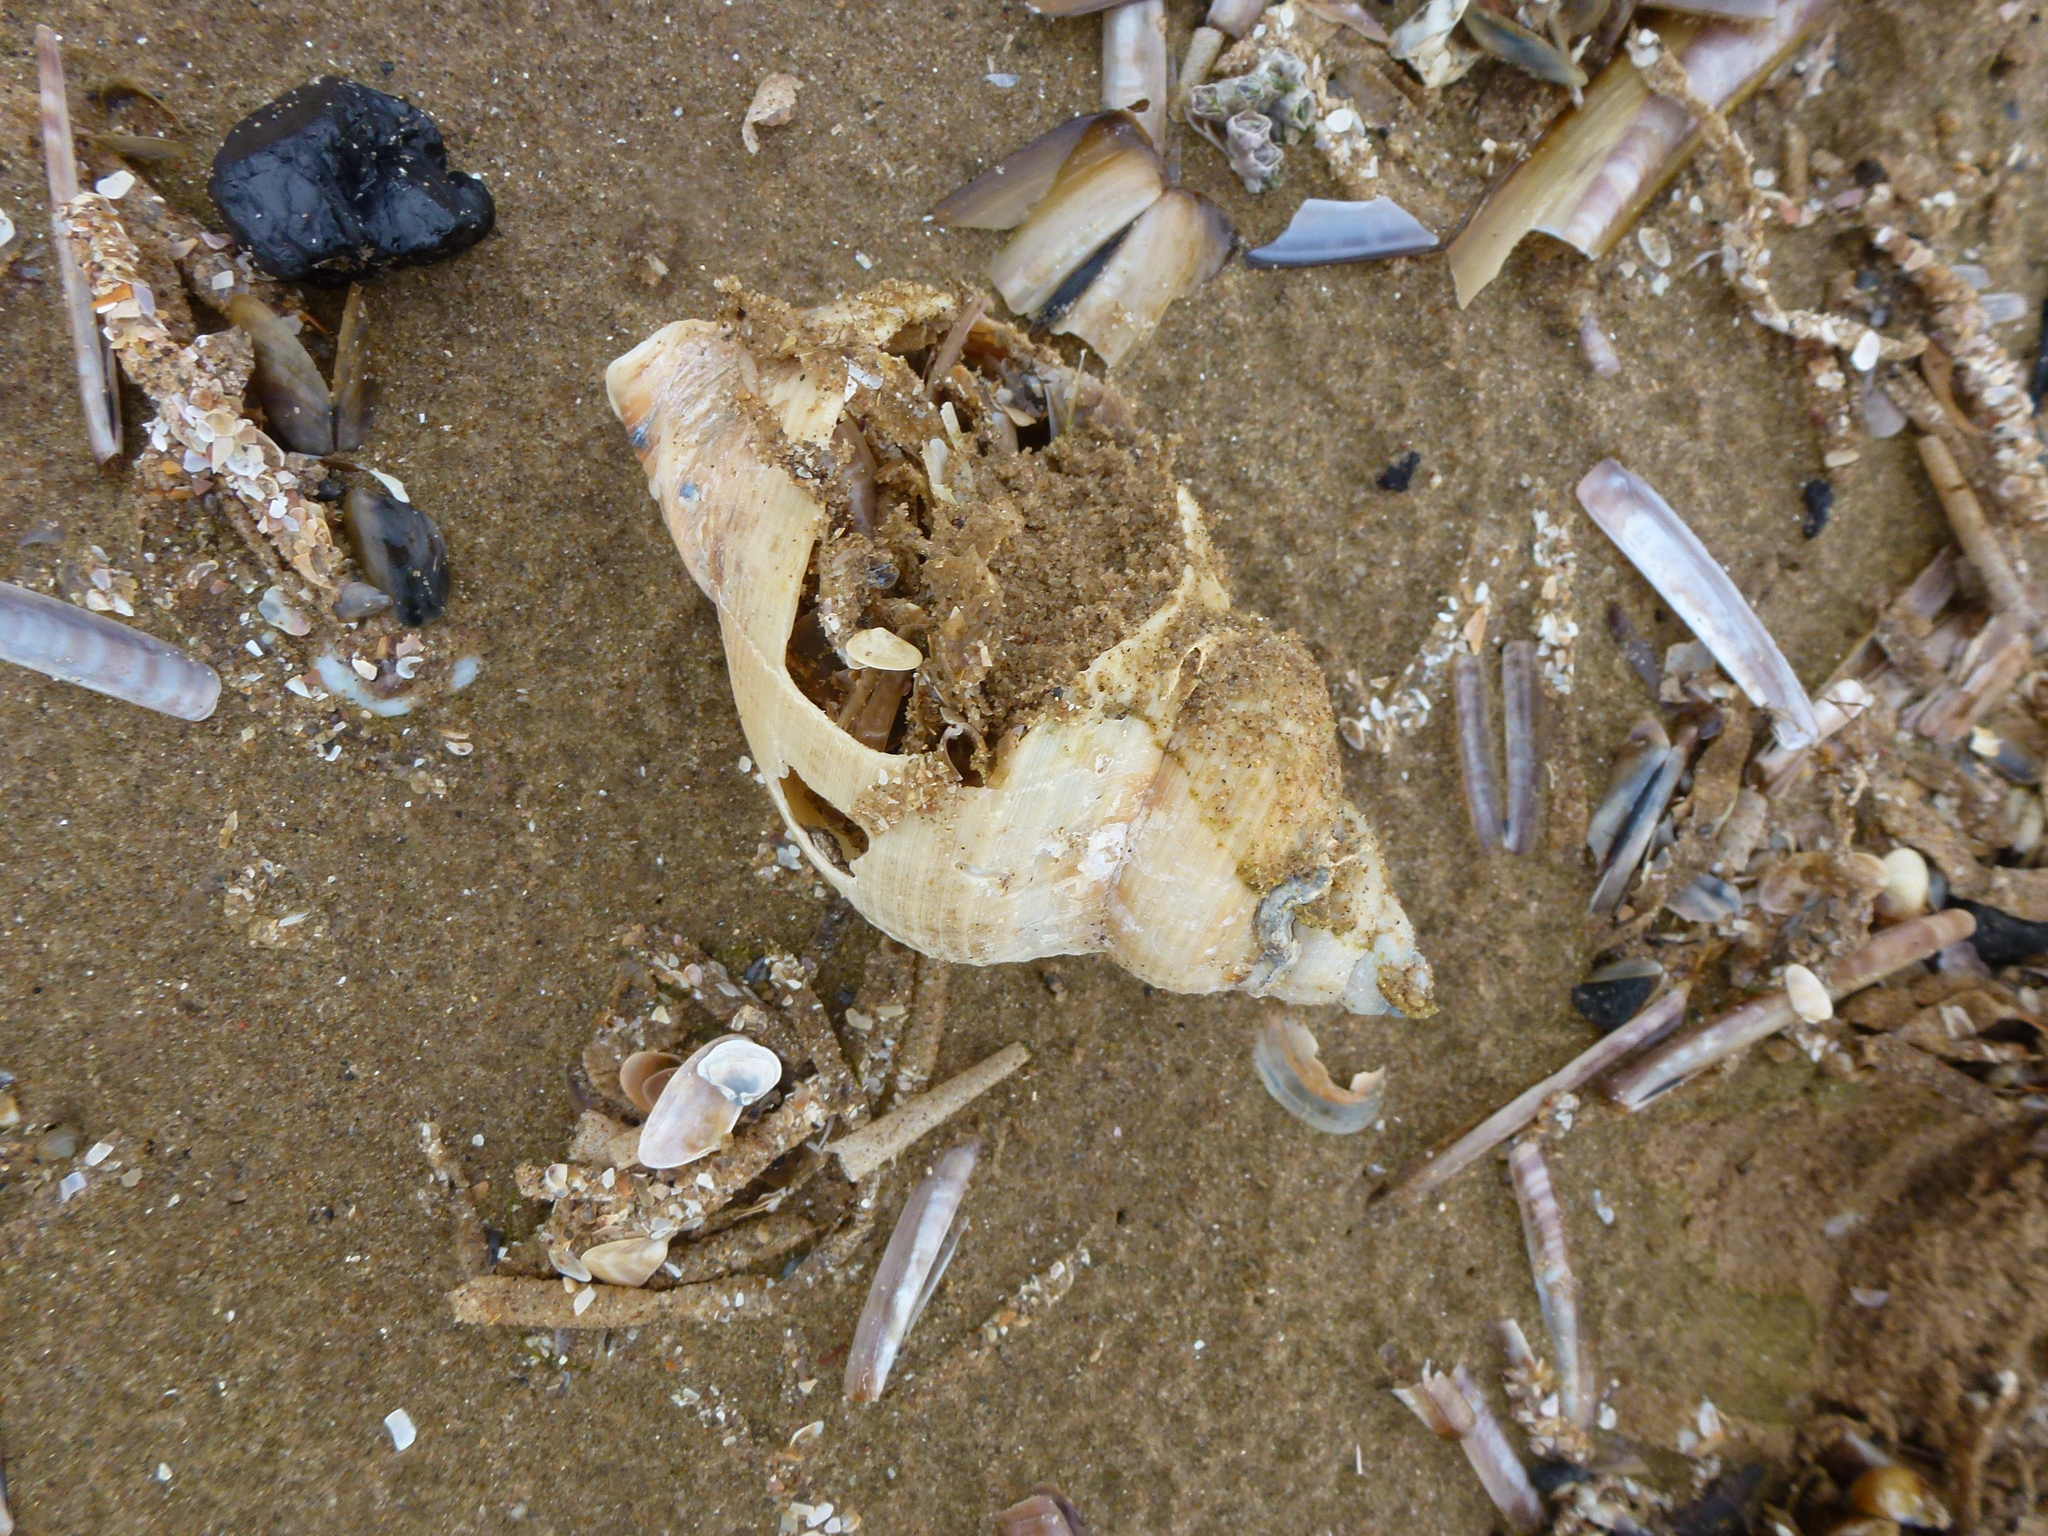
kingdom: Animalia
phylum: Mollusca
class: Gastropoda
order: Neogastropoda
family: Buccinidae
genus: Buccinum
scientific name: Buccinum undatum
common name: Common whelk
